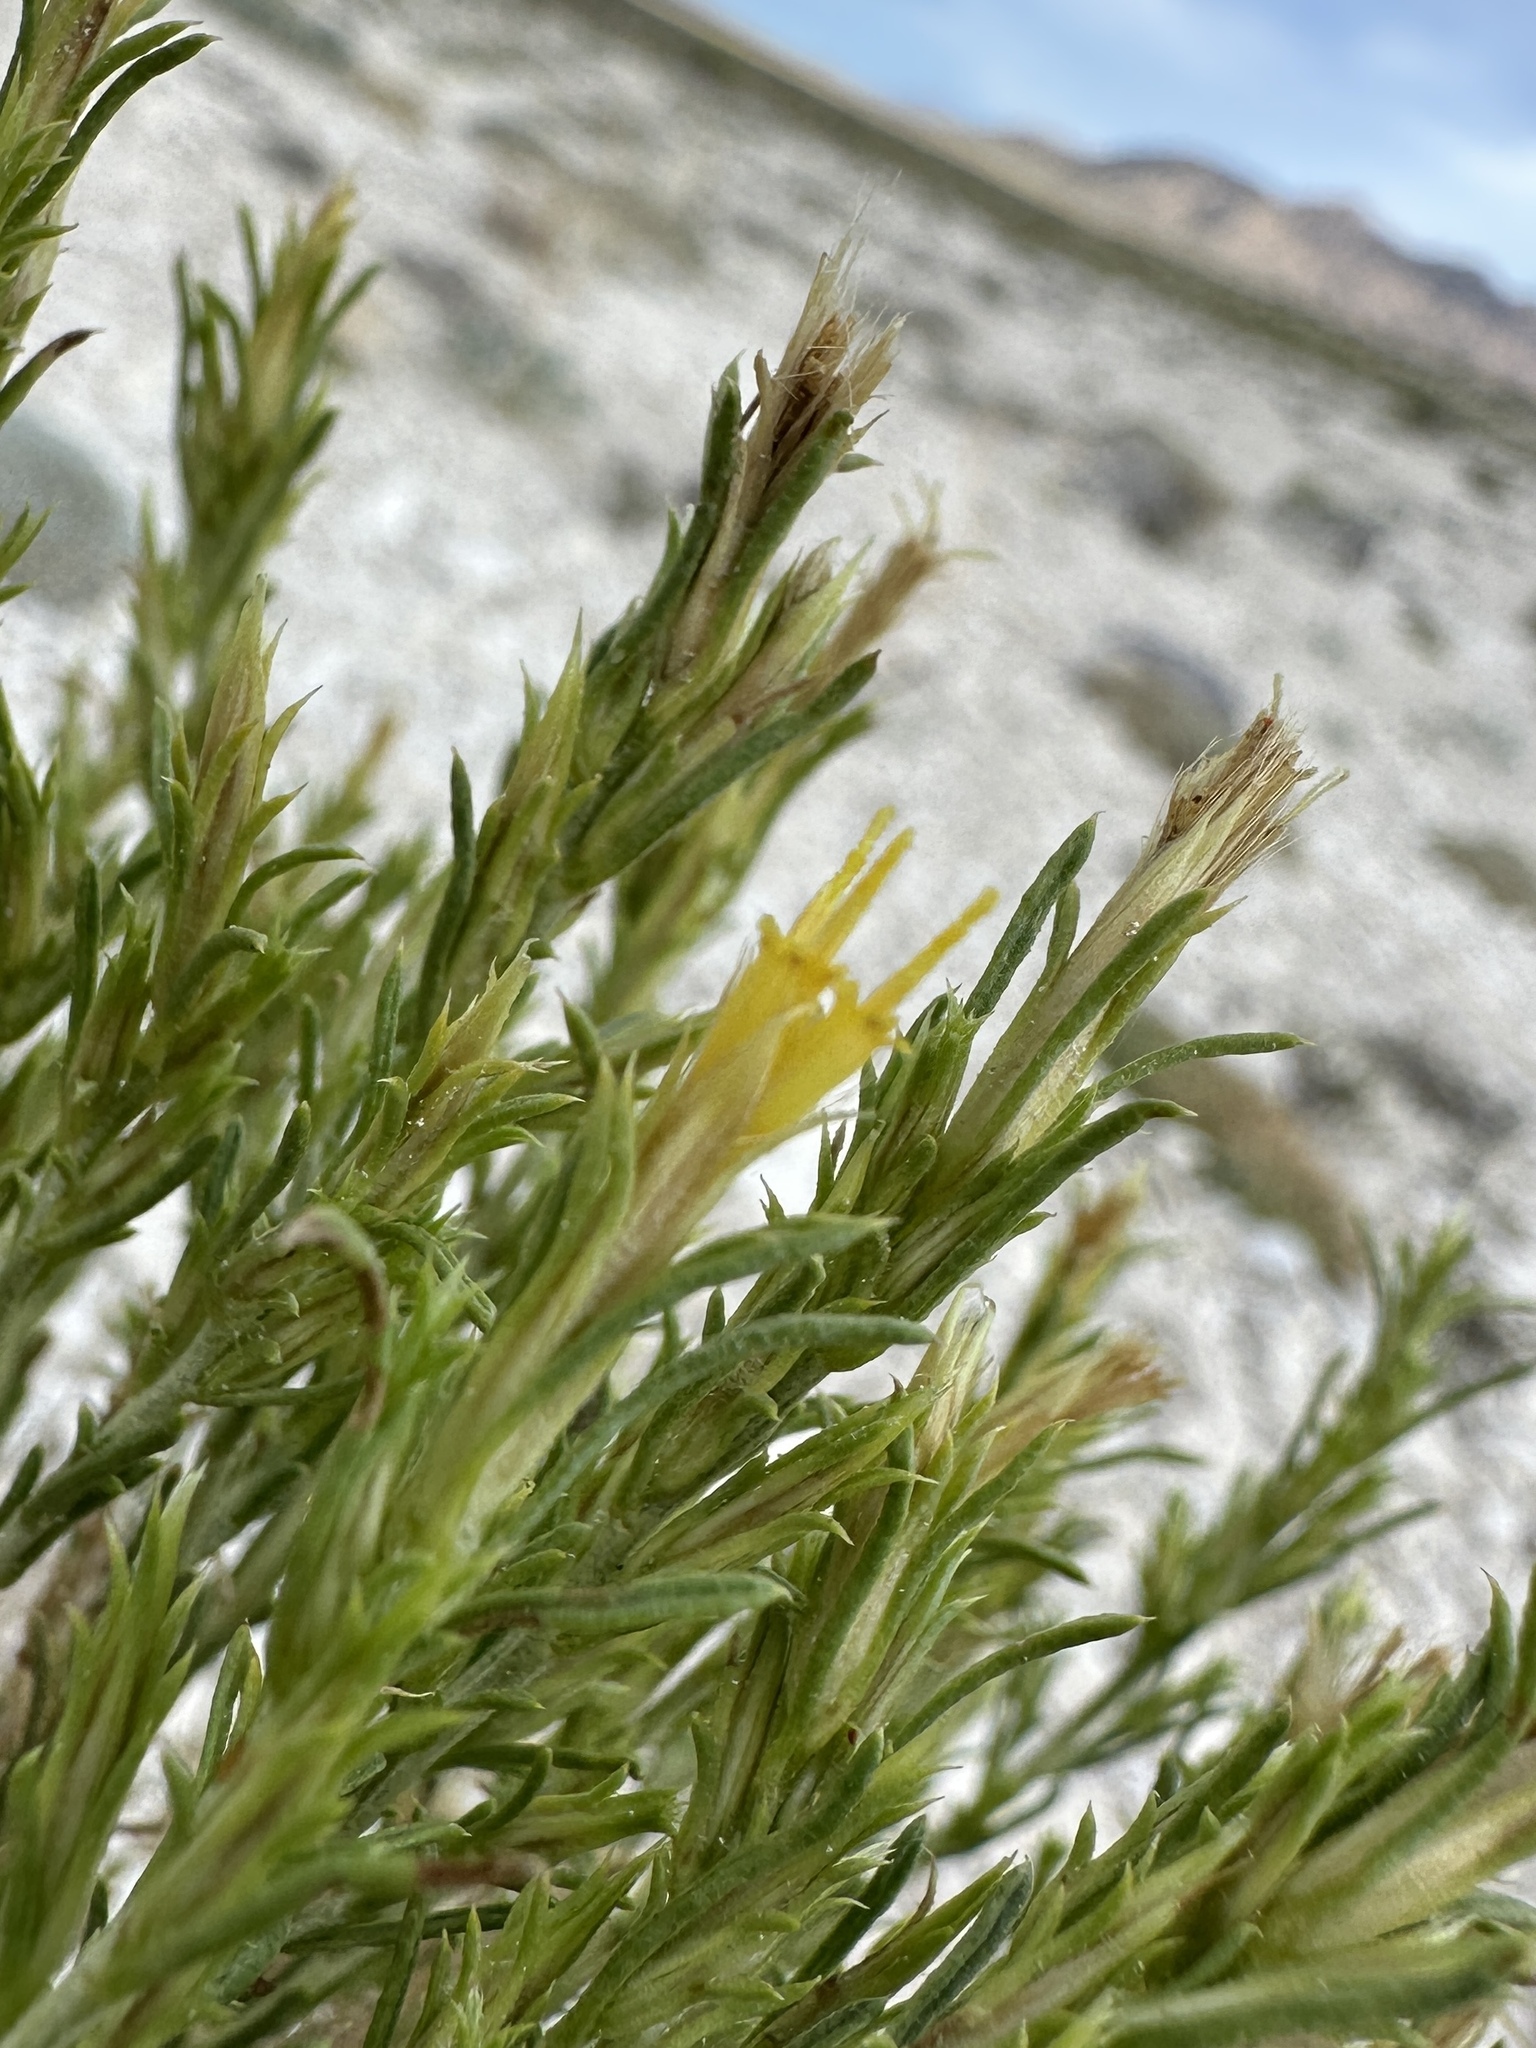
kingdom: Plantae
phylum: Tracheophyta
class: Magnoliopsida
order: Asterales
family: Asteraceae
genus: Ericameria
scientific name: Ericameria parryi
